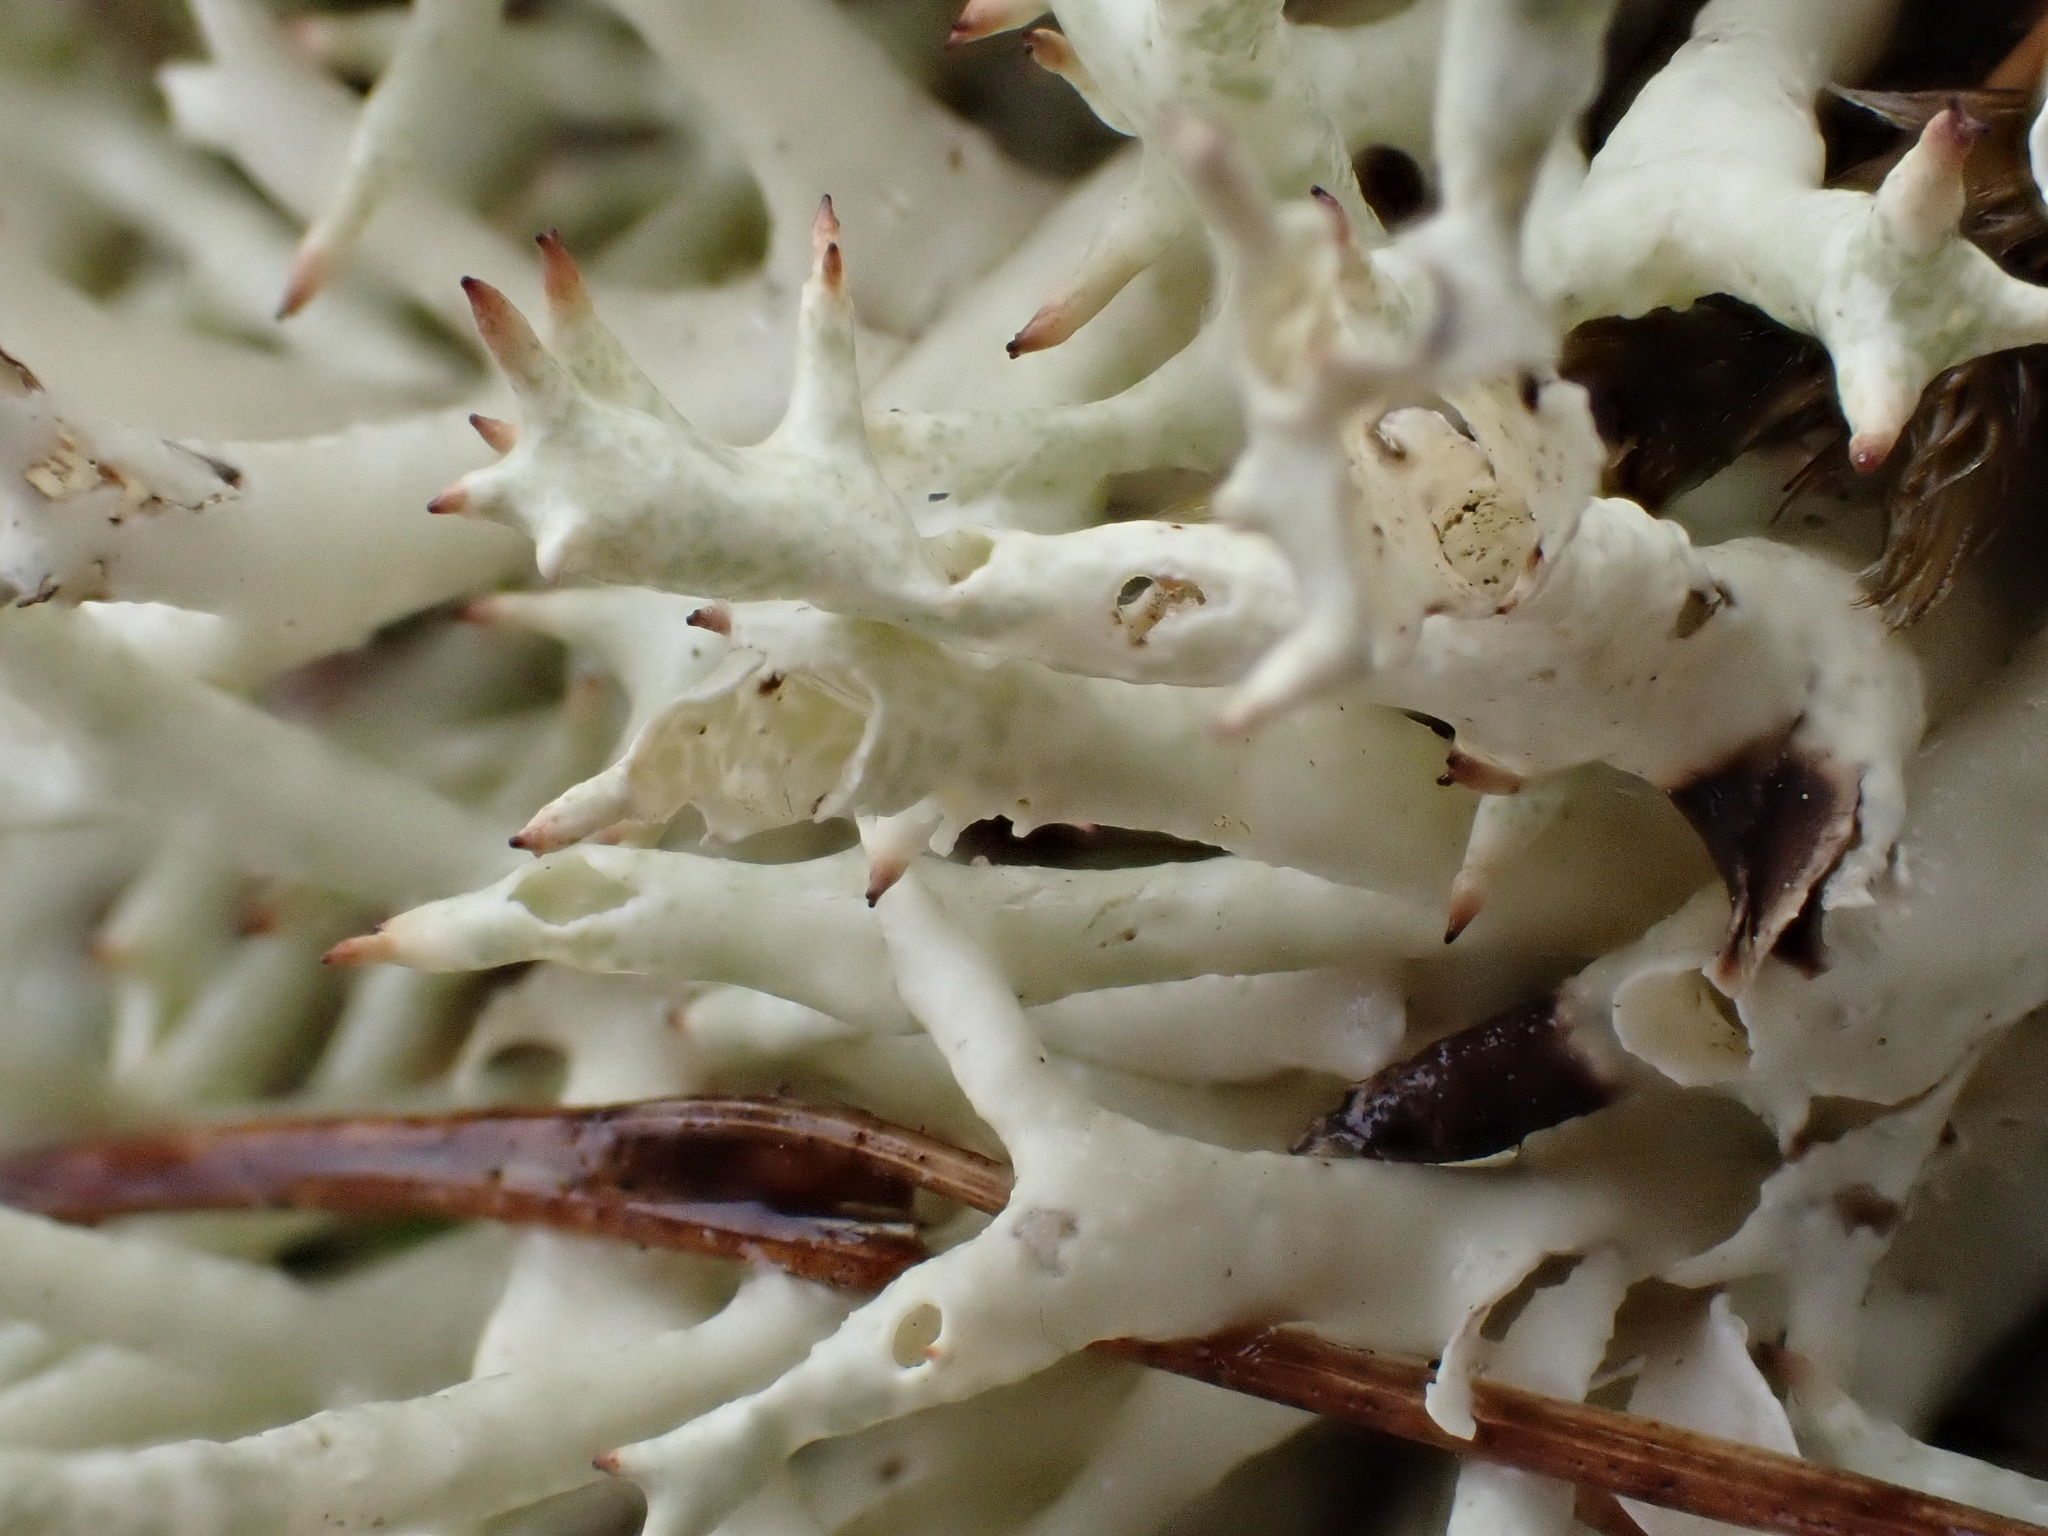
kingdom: Fungi
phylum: Ascomycota
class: Lecanoromycetes
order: Lecanorales
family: Cladoniaceae
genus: Cladonia
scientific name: Cladonia uncialis
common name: Thorn lichen
